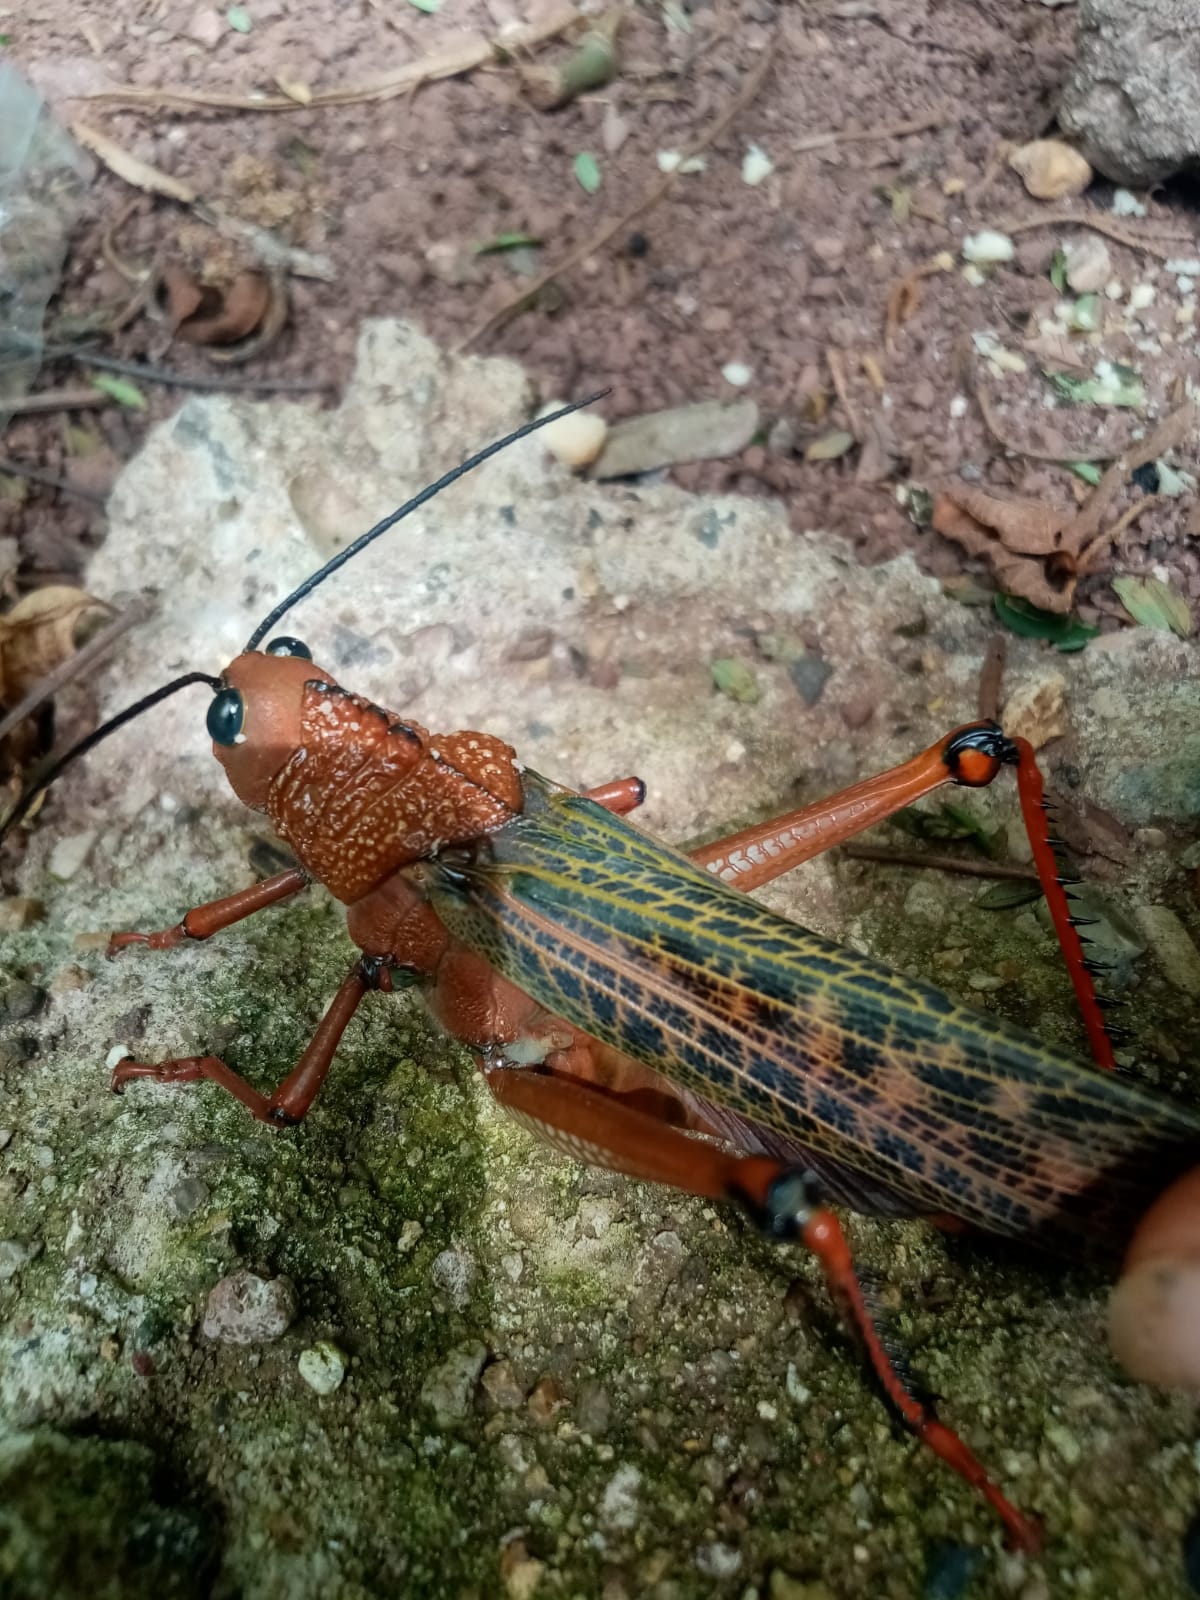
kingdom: Animalia
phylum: Arthropoda
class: Insecta
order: Orthoptera
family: Romaleidae
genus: Tropidacris
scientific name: Tropidacris cristata
